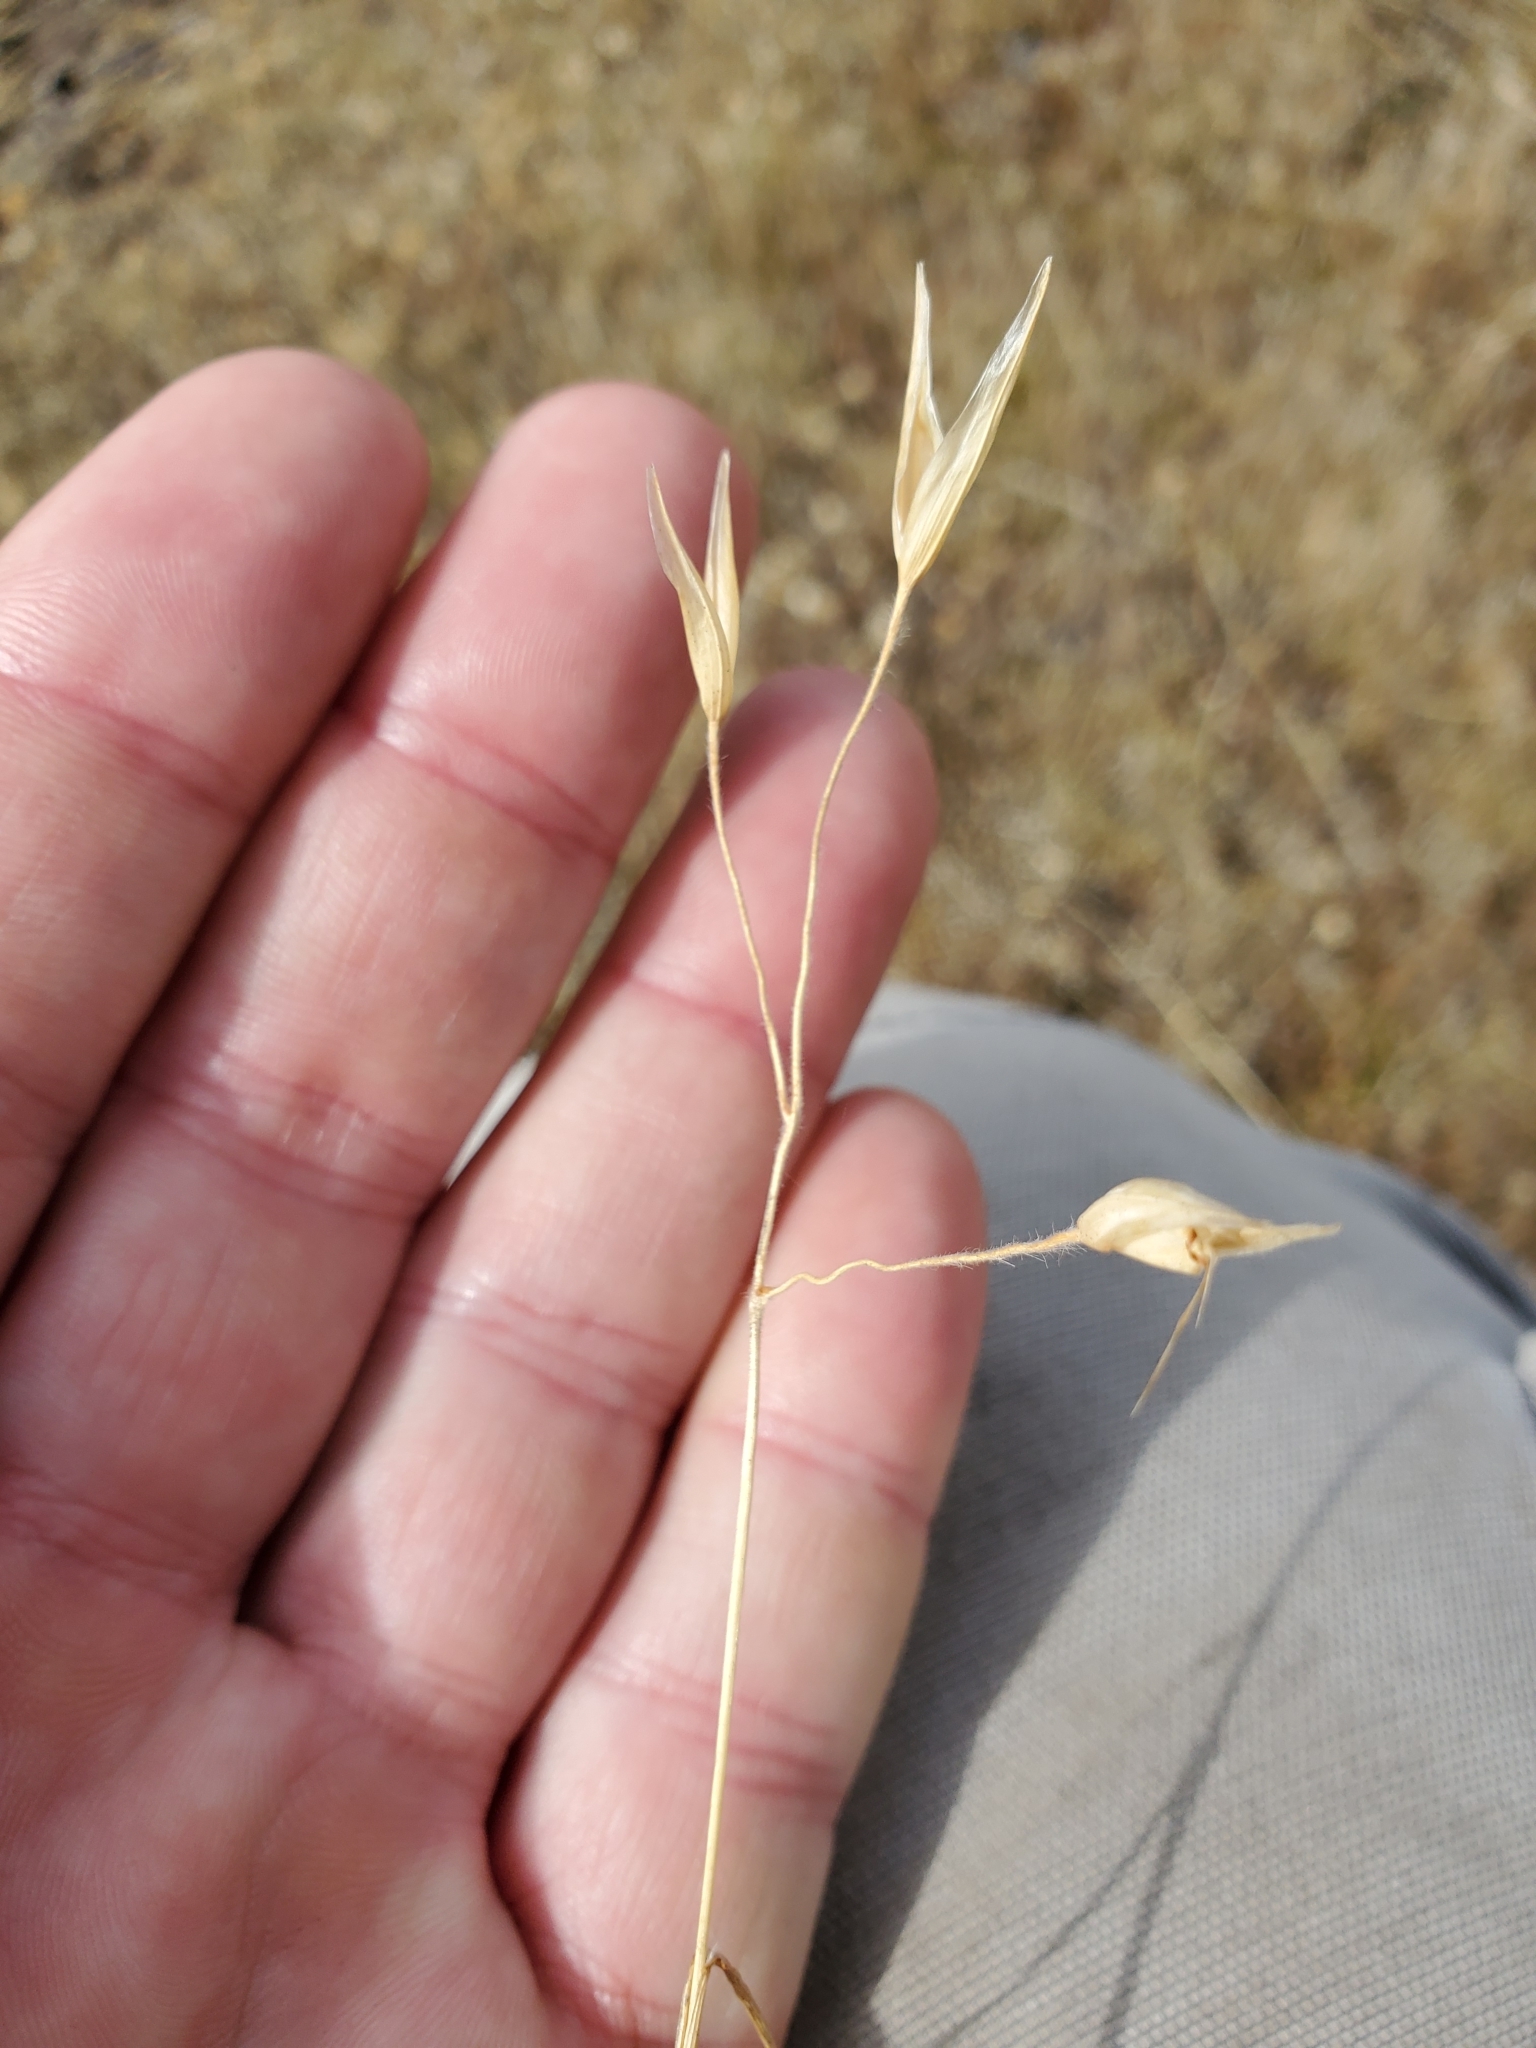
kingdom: Plantae
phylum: Tracheophyta
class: Liliopsida
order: Poales
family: Poaceae
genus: Danthonia
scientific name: Danthonia californica
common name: California oat grass
